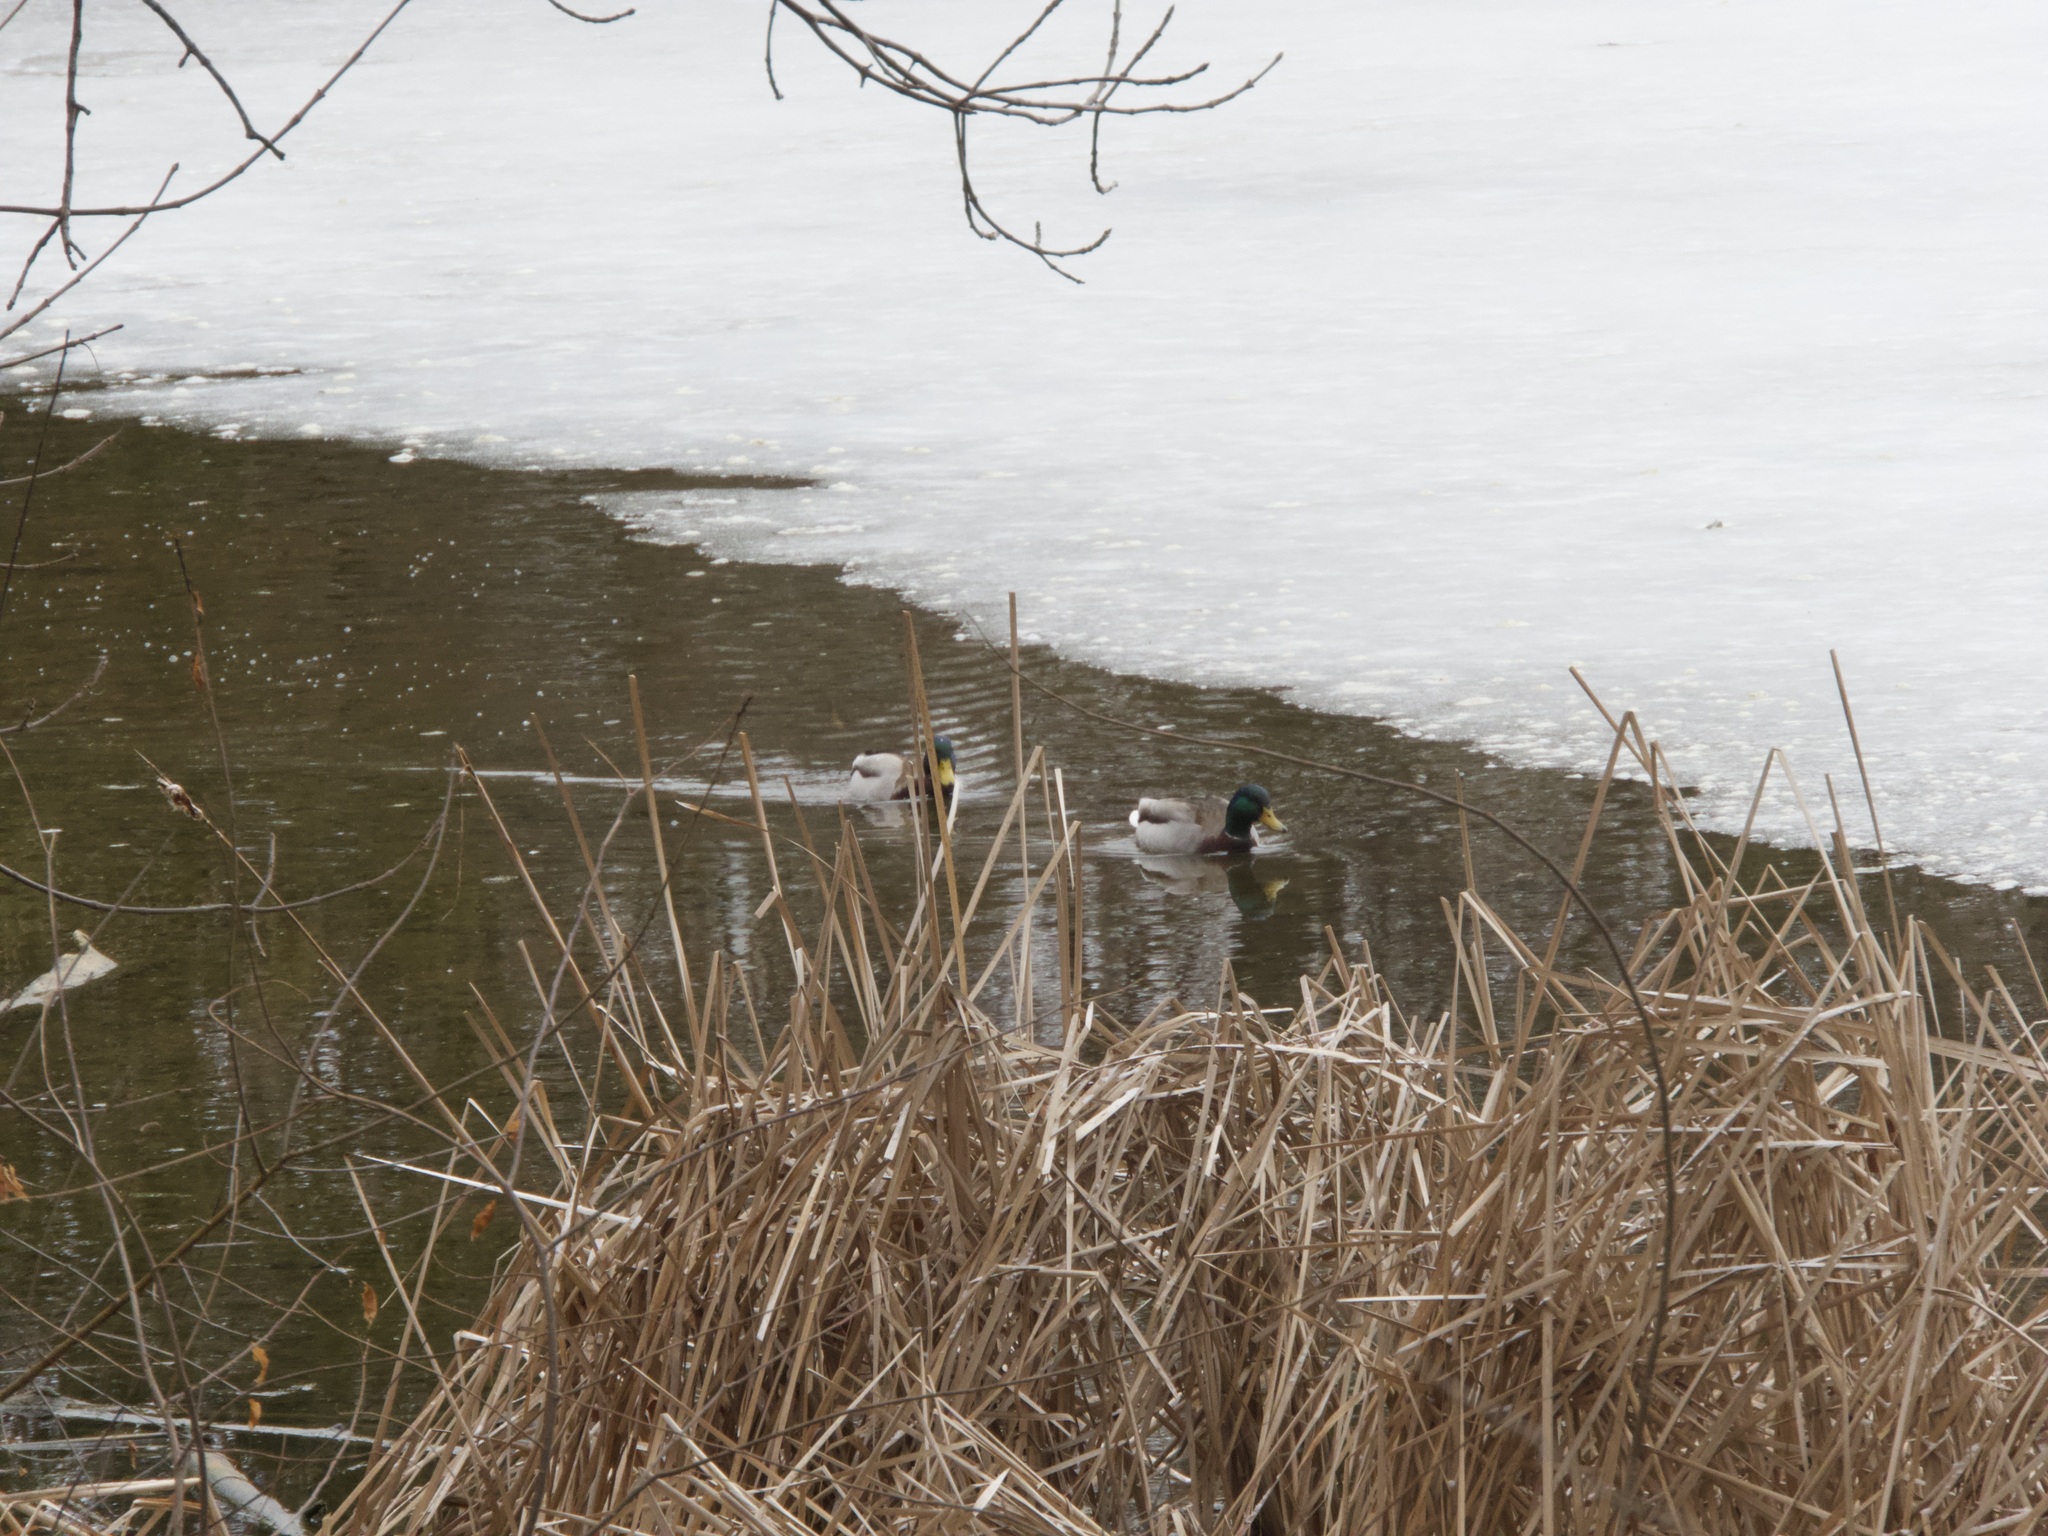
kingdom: Animalia
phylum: Chordata
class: Aves
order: Anseriformes
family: Anatidae
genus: Anas
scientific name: Anas platyrhynchos
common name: Mallard
